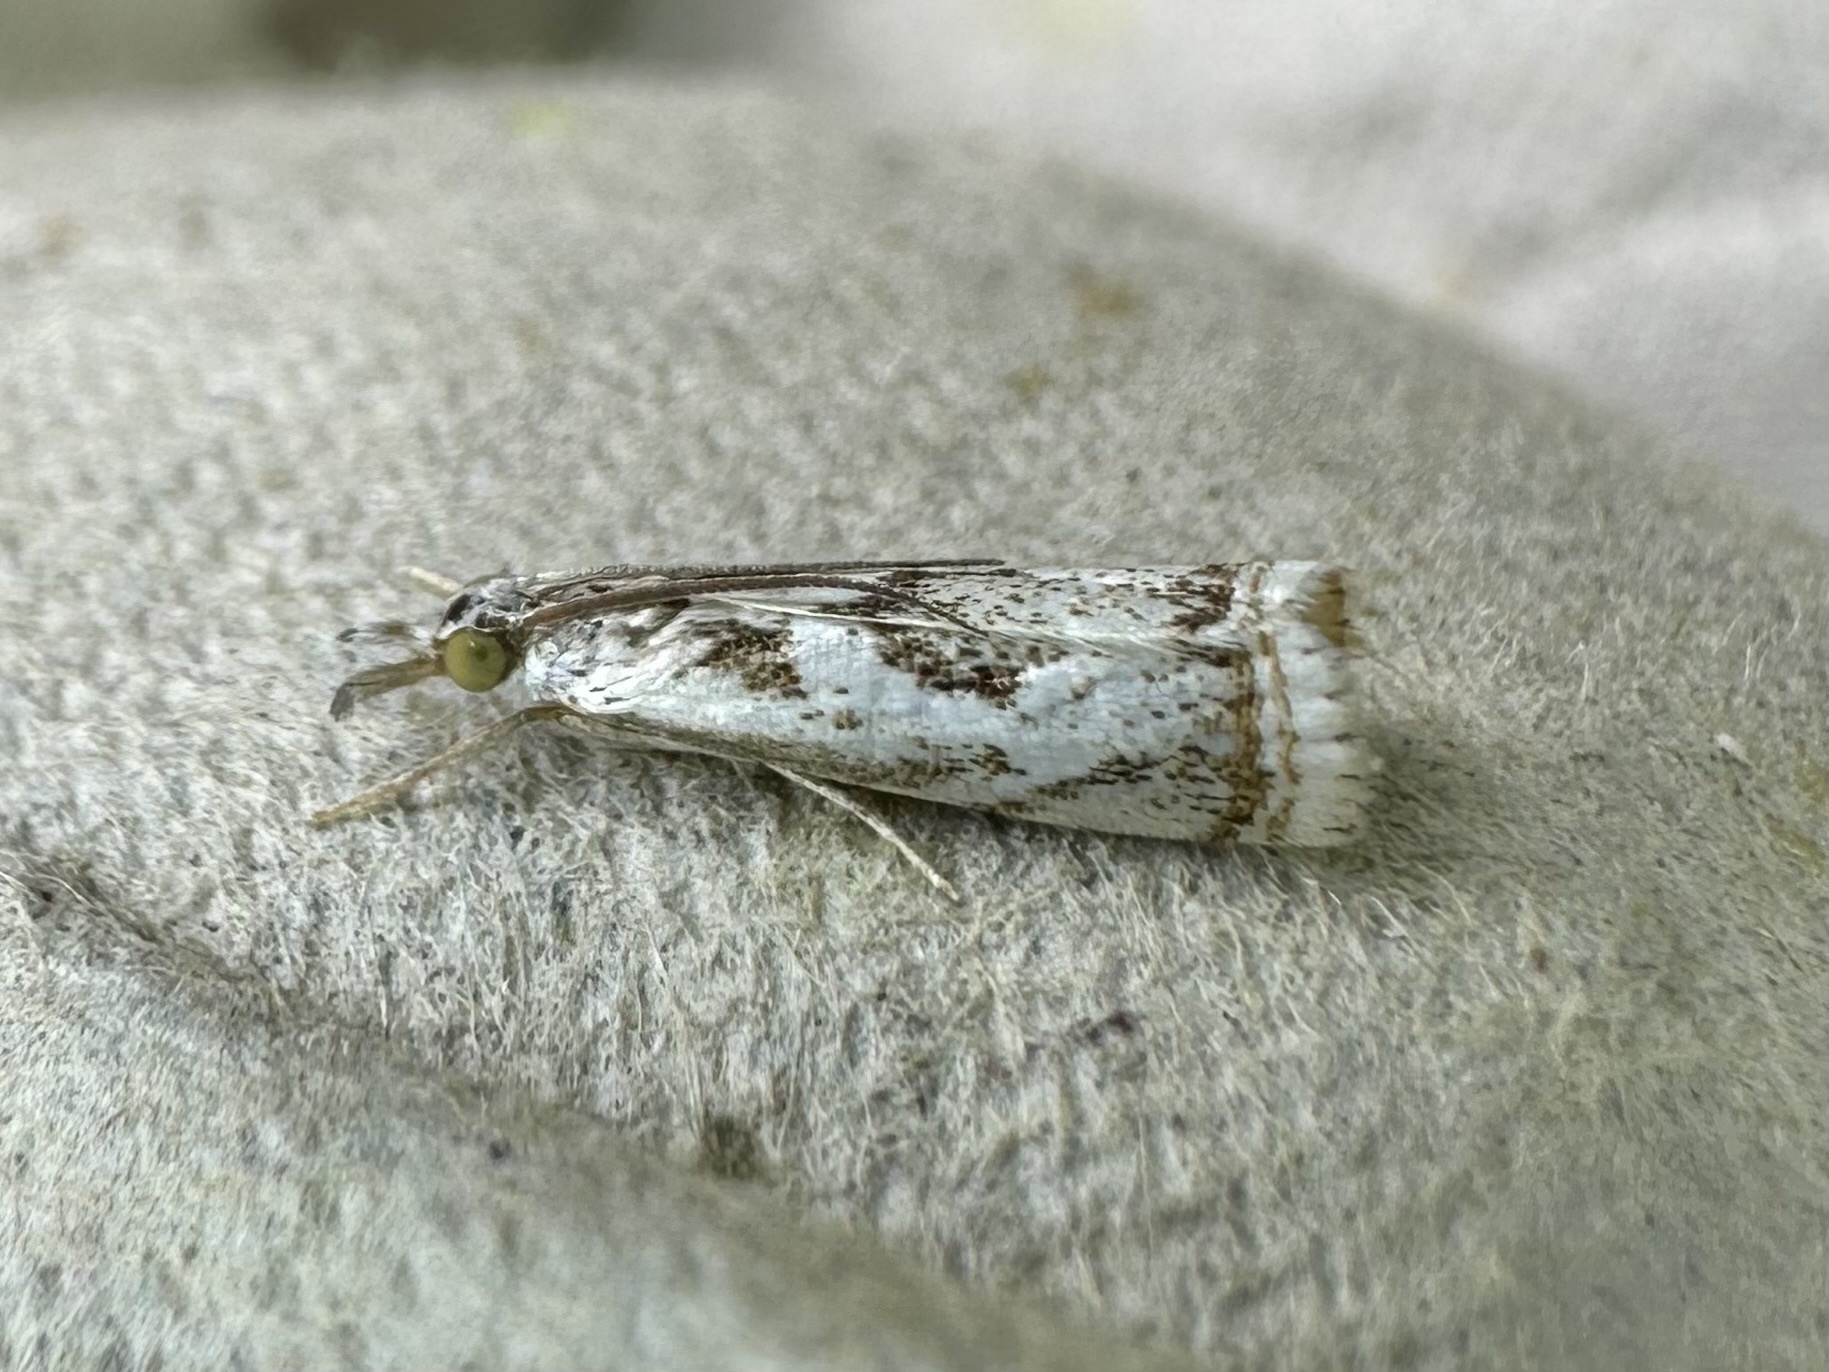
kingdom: Animalia
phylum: Arthropoda
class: Insecta
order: Lepidoptera
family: Crambidae
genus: Microcrambus
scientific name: Microcrambus elegans
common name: Elegant grass-veneer
